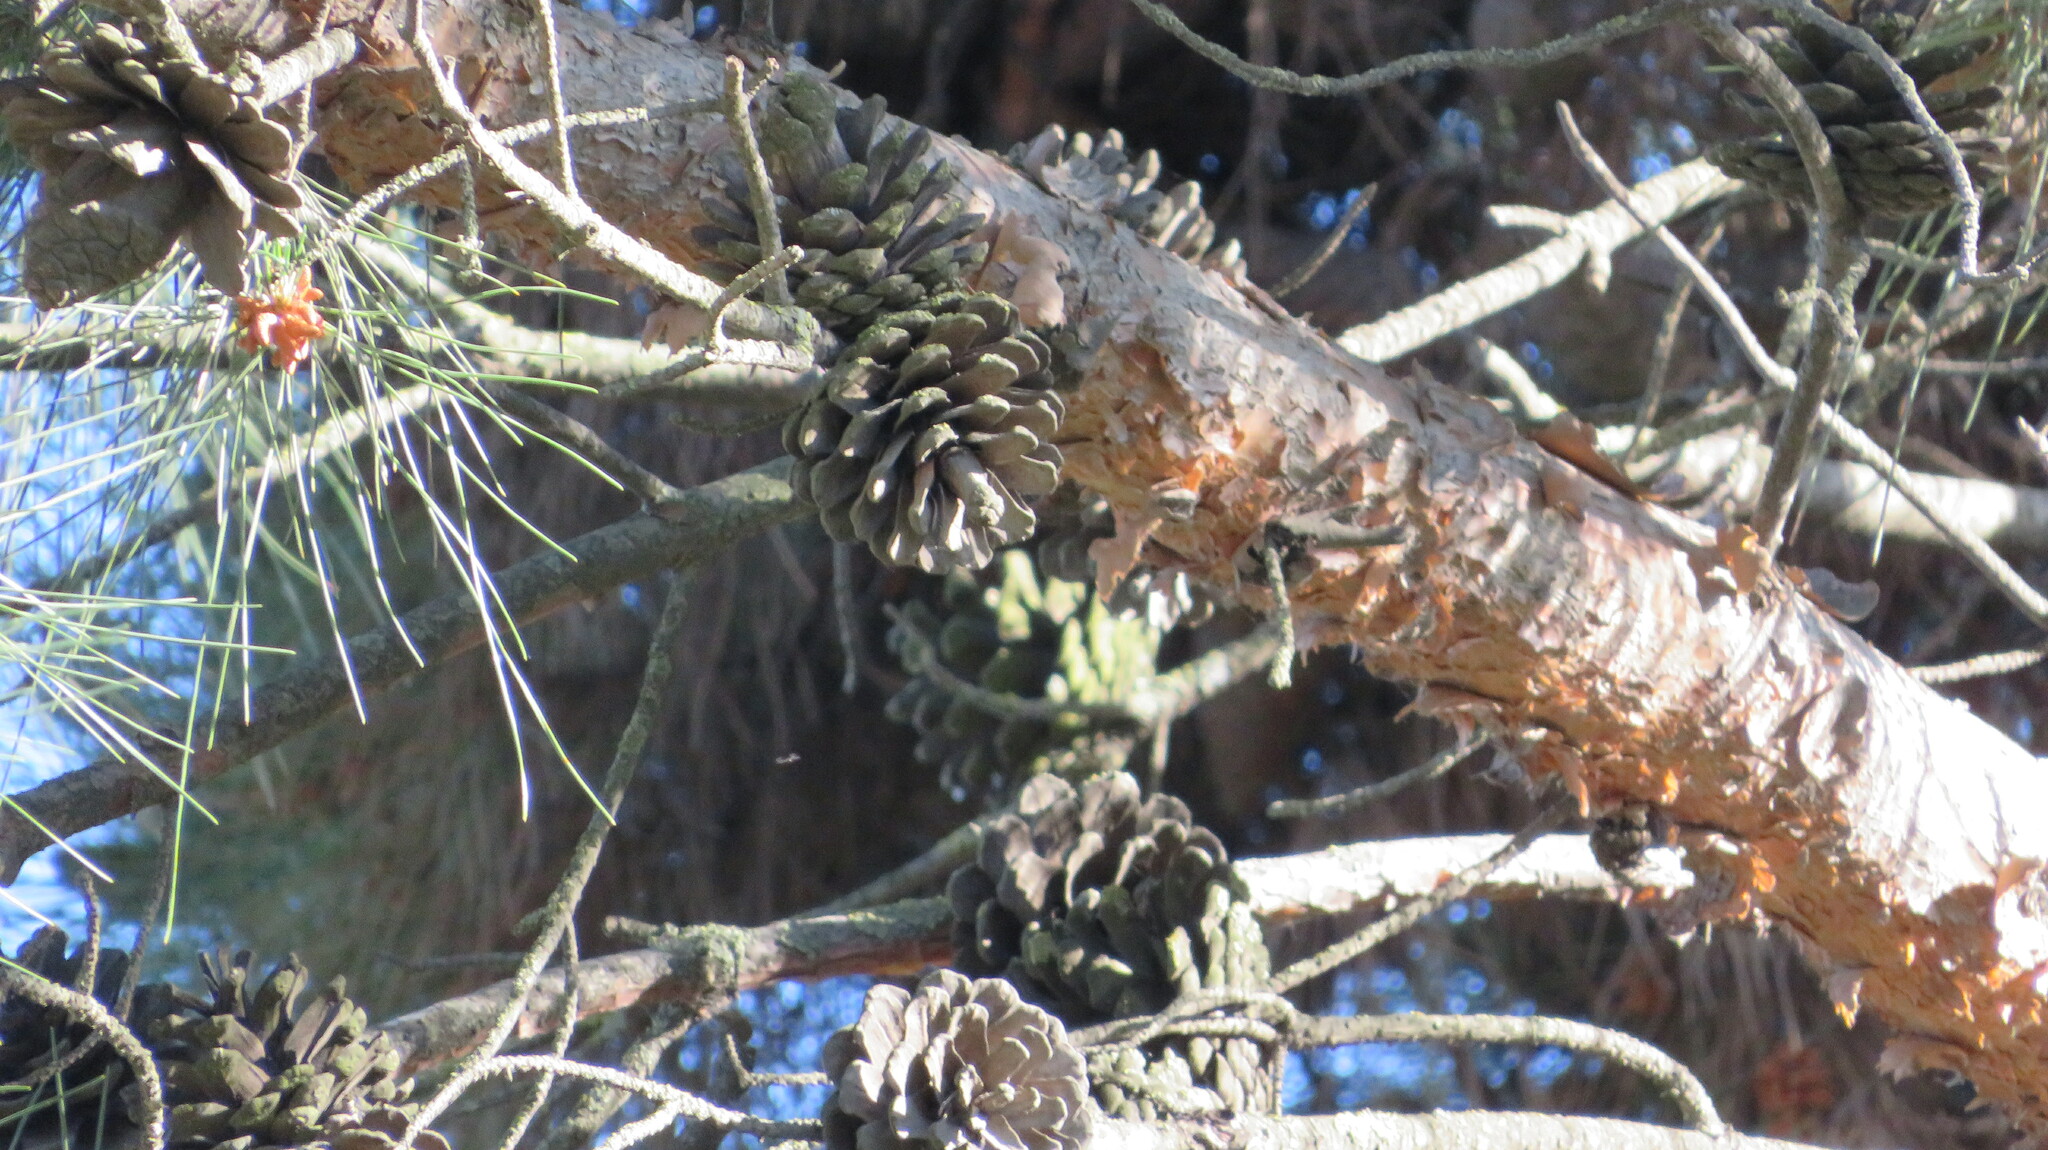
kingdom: Plantae
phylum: Tracheophyta
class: Pinopsida
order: Pinales
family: Pinaceae
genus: Pinus
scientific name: Pinus sylvestris
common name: Scots pine
